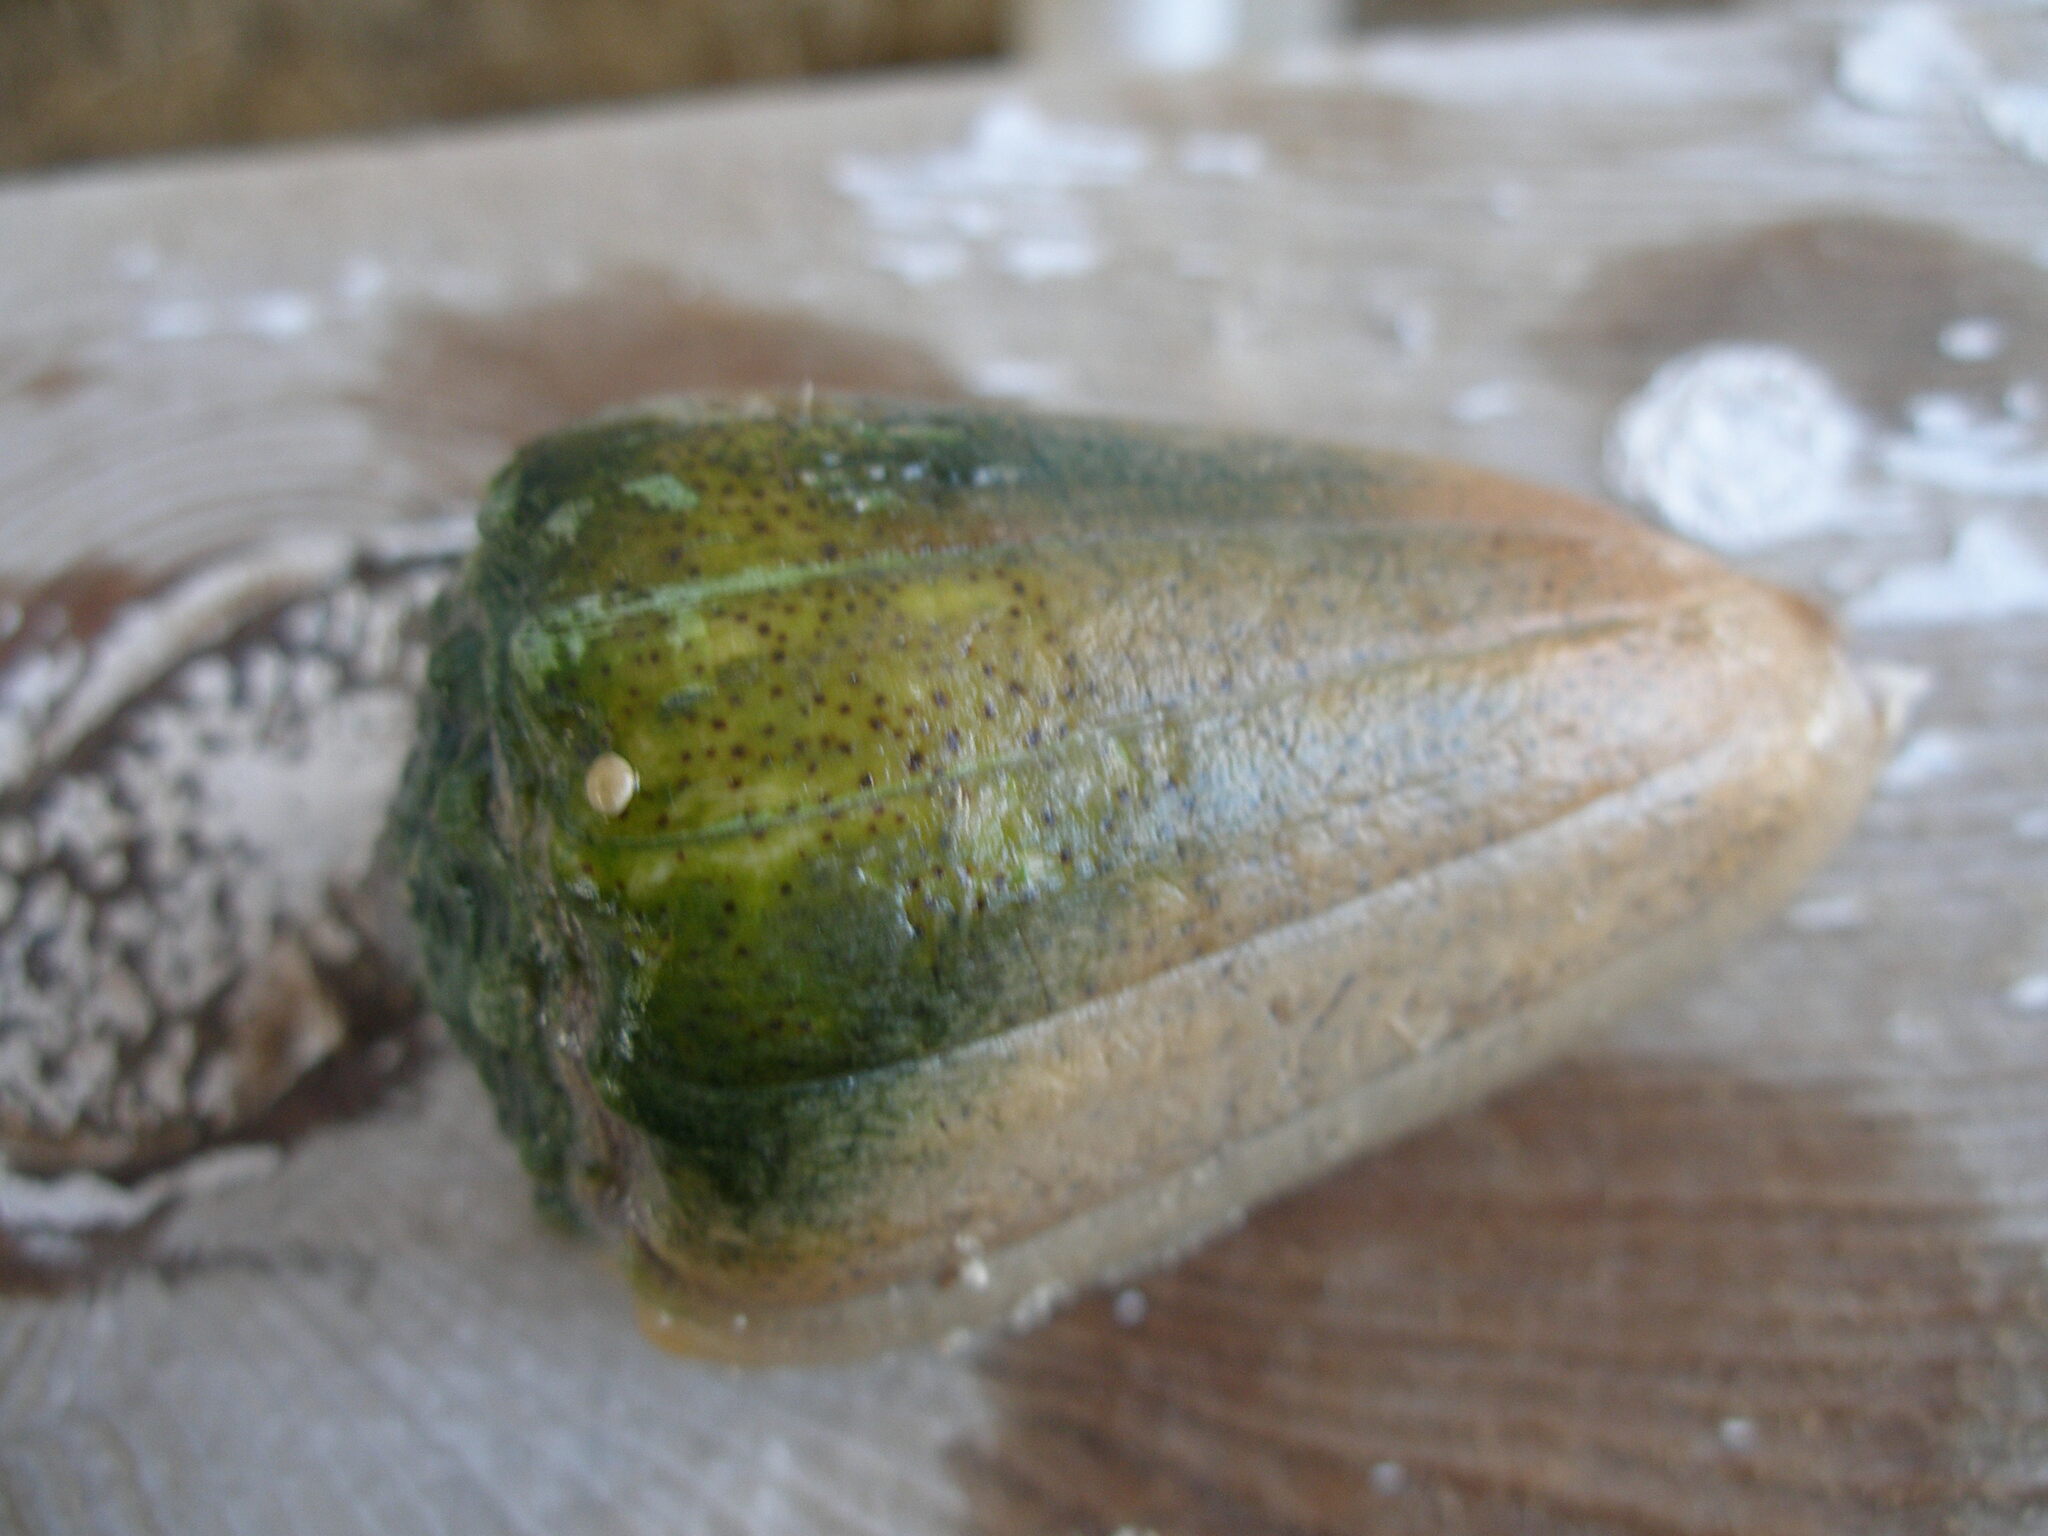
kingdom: Animalia
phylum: Mollusca
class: Gastropoda
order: Neogastropoda
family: Conidae
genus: Conus
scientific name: Conus arenatus
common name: Sand-dusted cone
